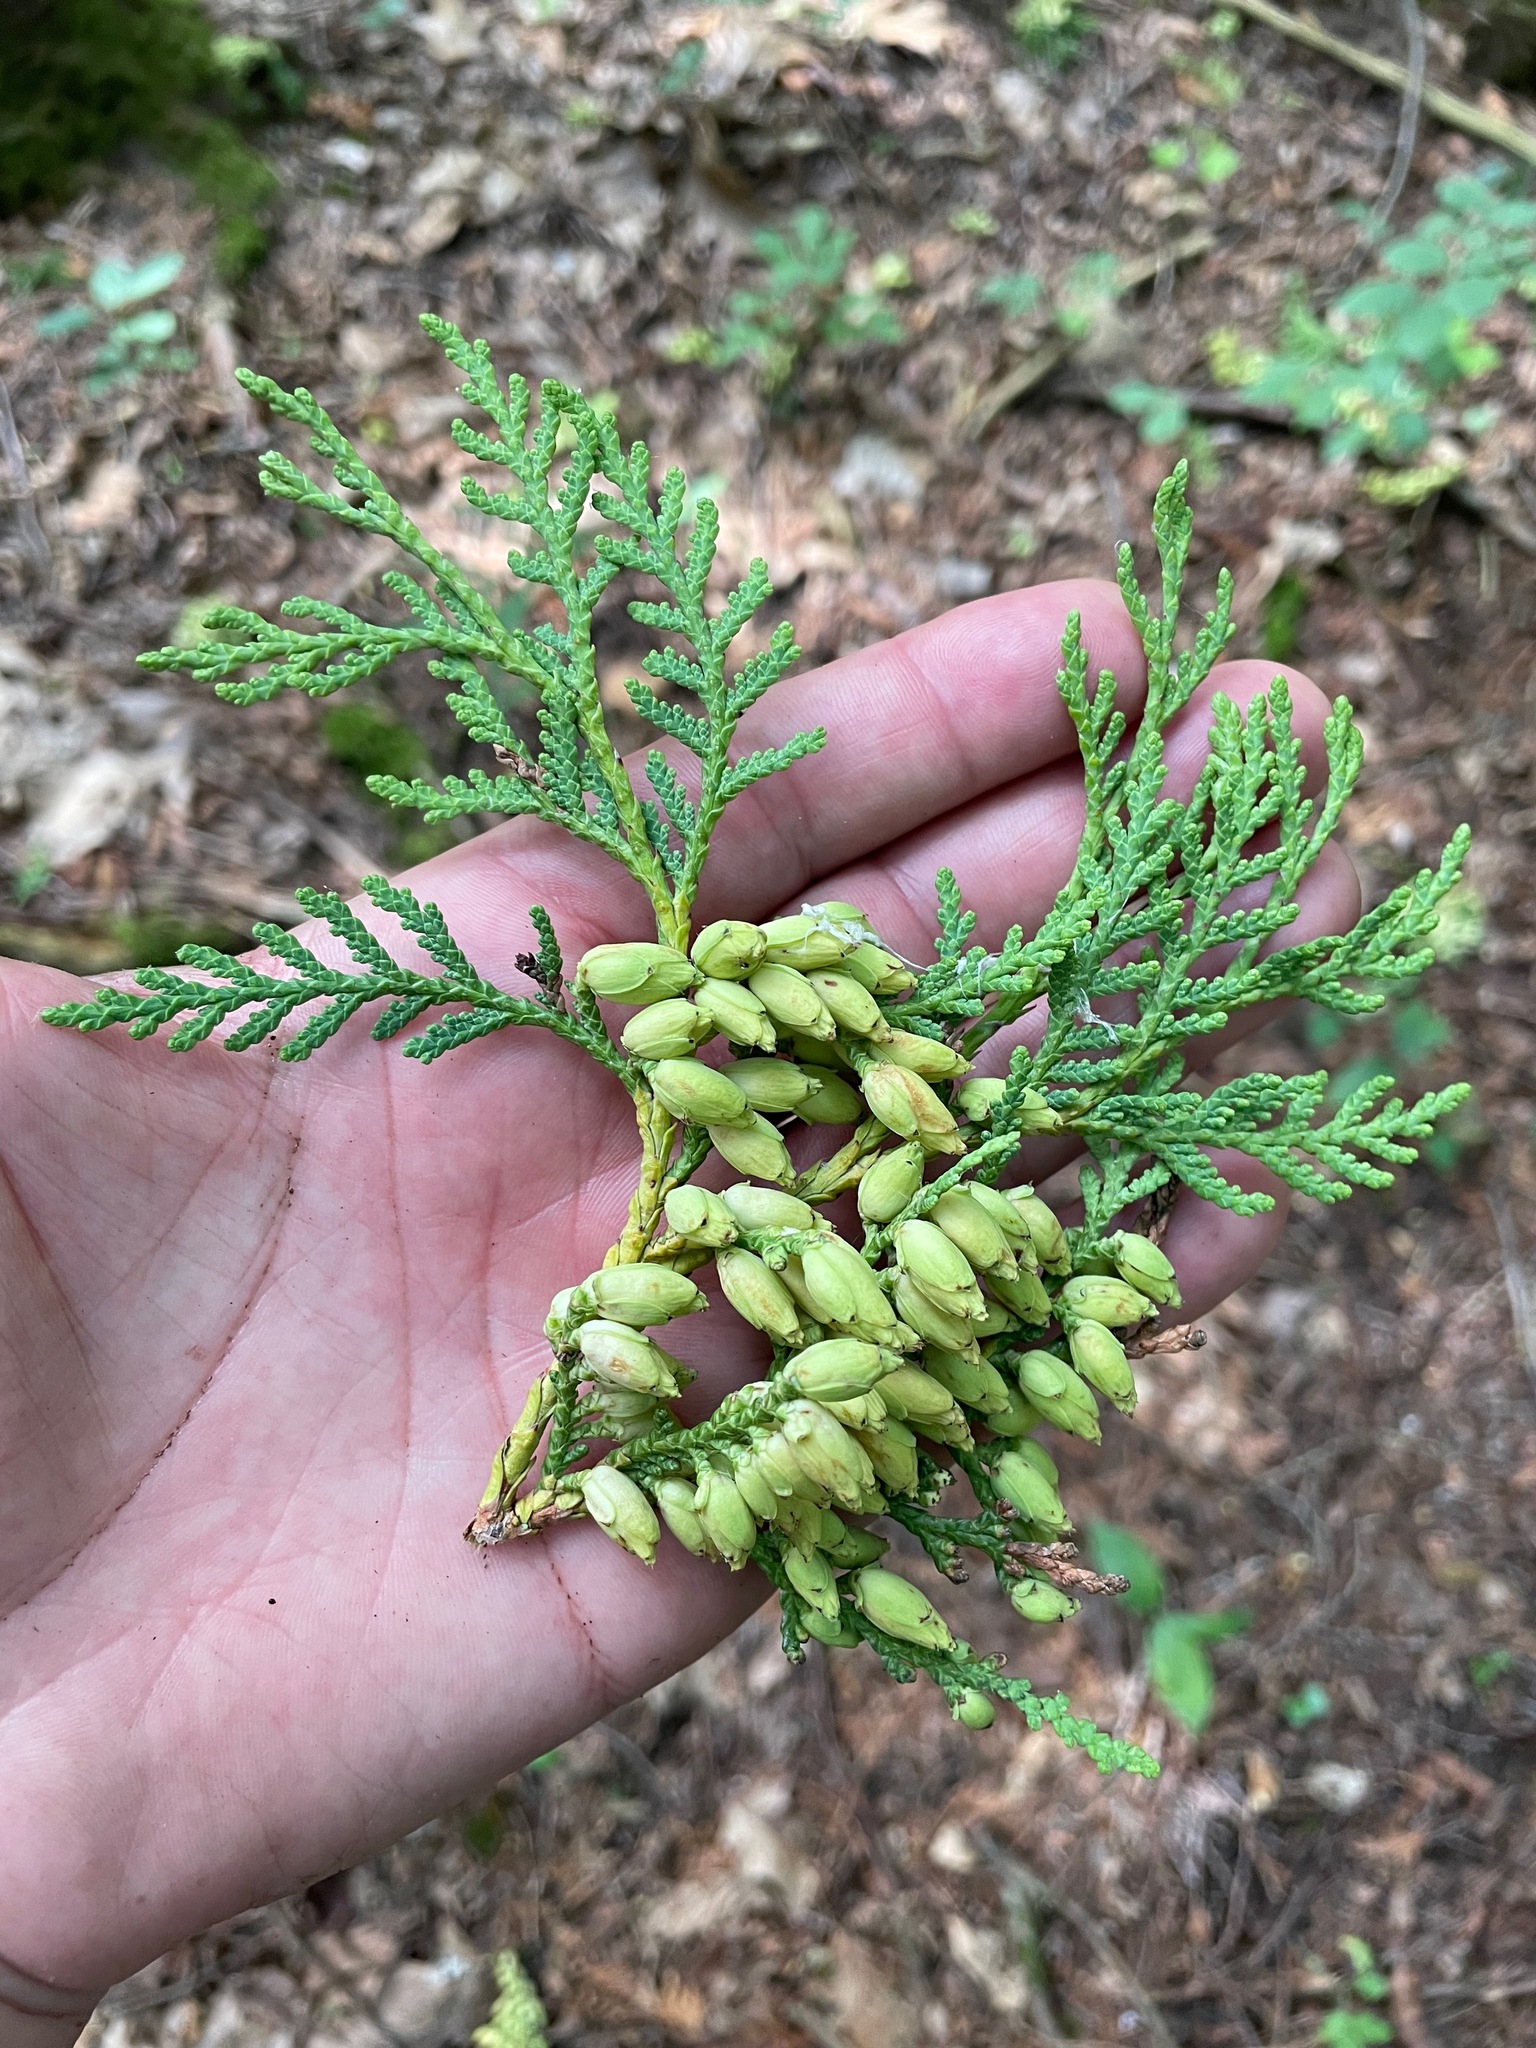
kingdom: Plantae
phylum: Tracheophyta
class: Pinopsida
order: Pinales
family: Cupressaceae
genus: Thuja
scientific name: Thuja occidentalis
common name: Northern white-cedar
